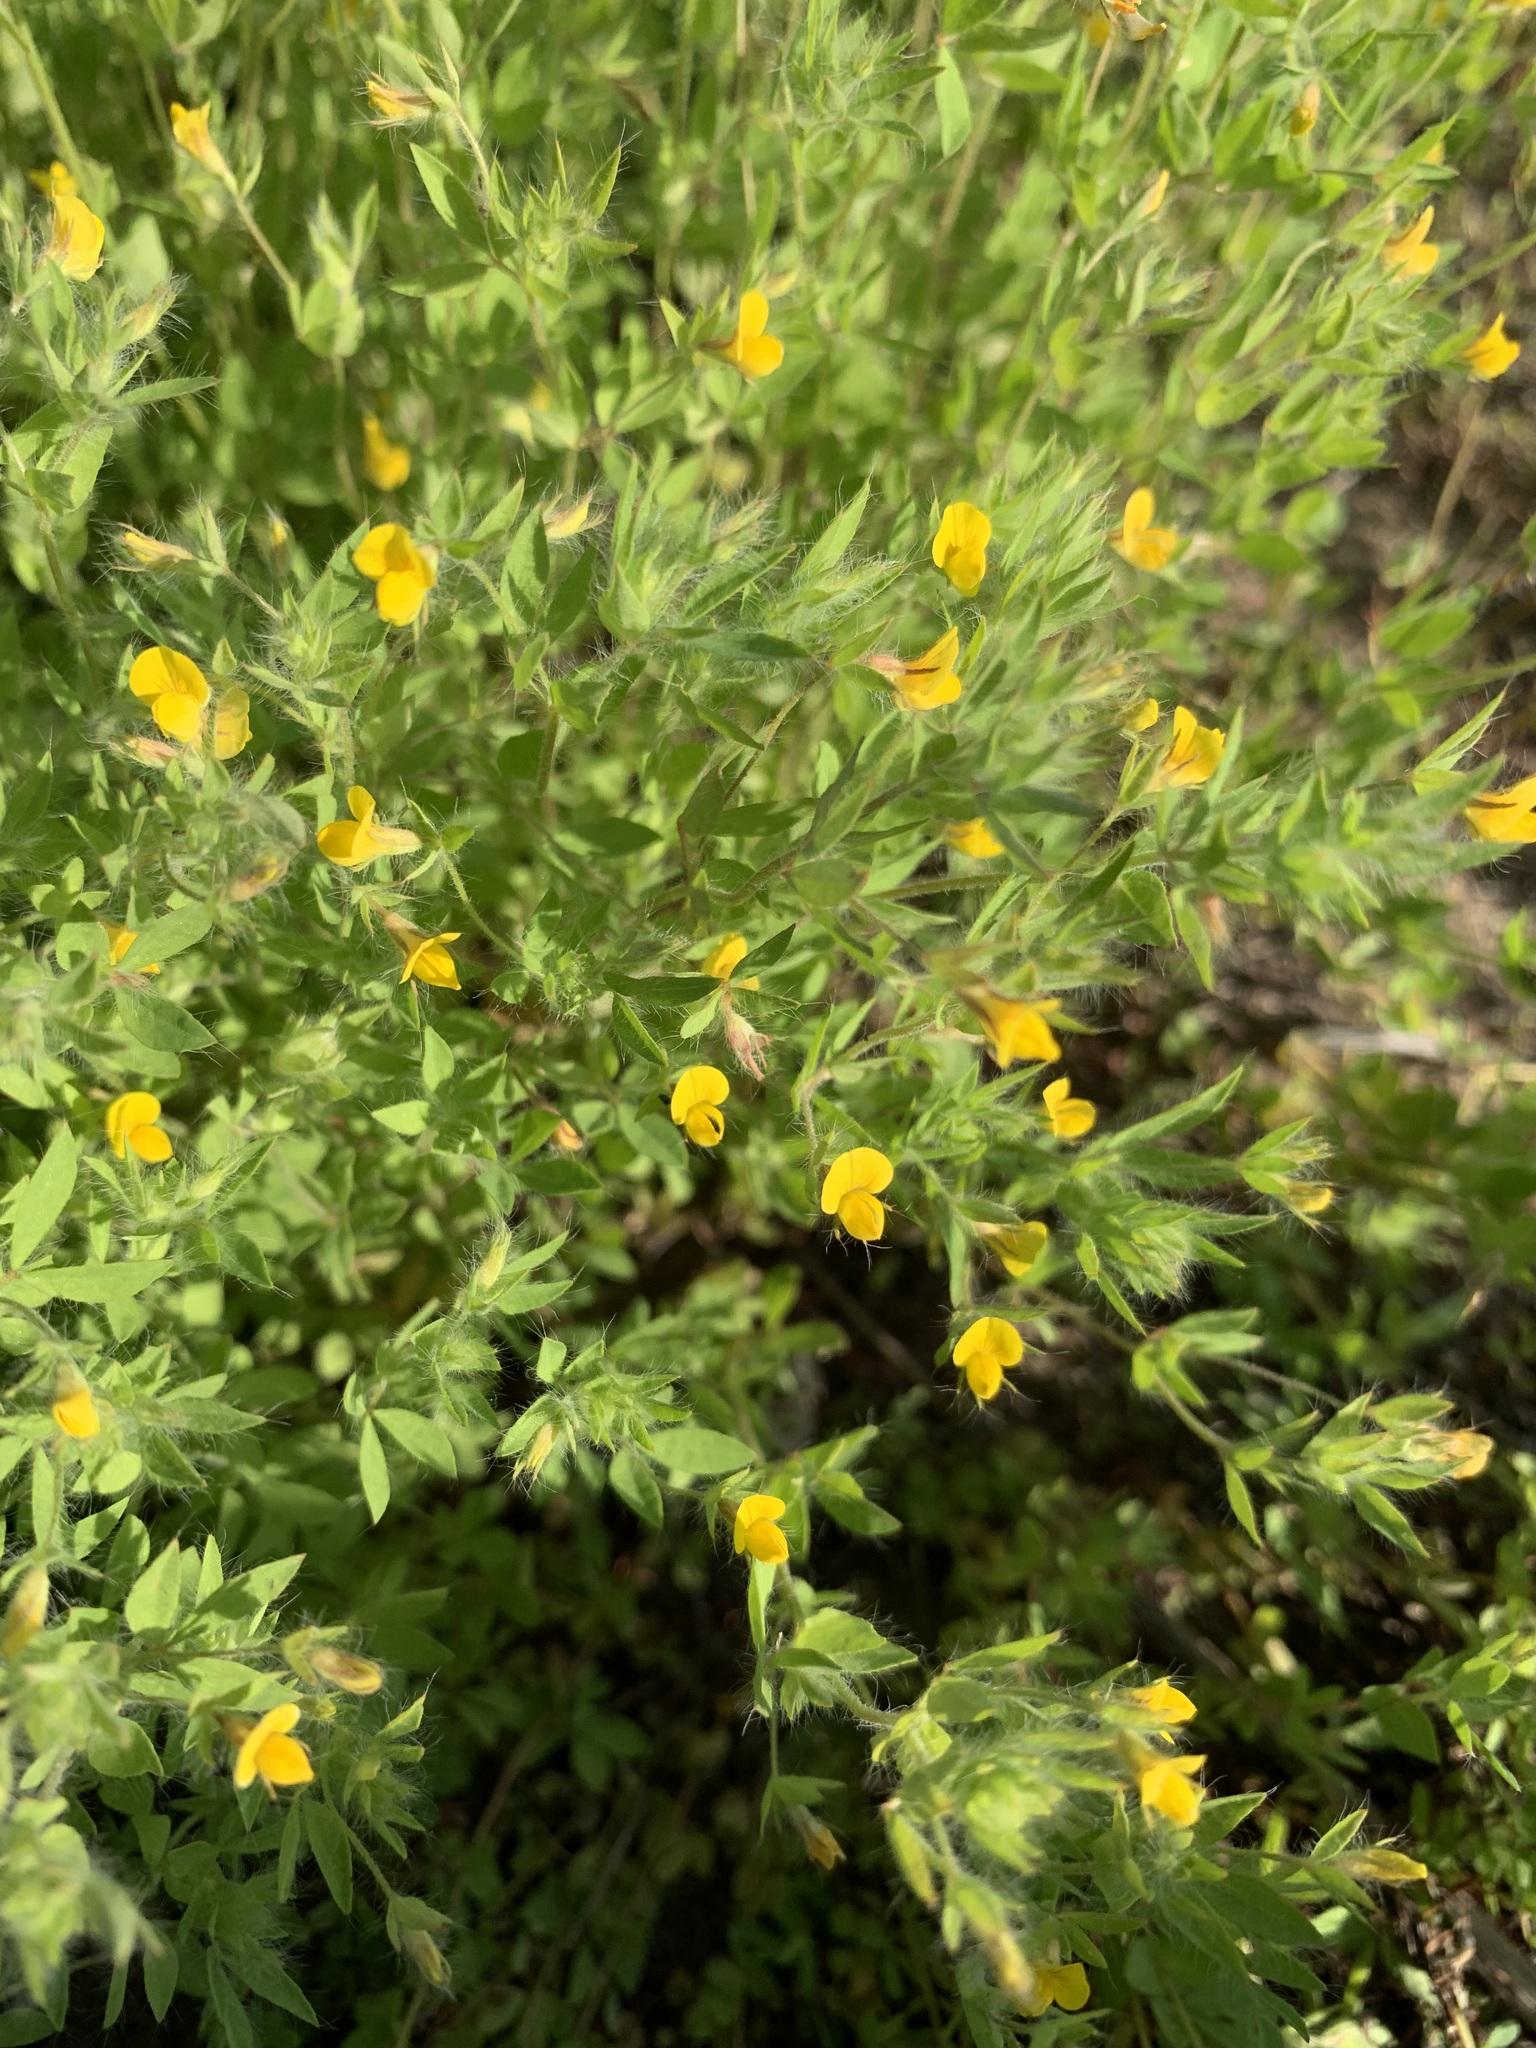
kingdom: Plantae
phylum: Tracheophyta
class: Magnoliopsida
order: Fabales
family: Fabaceae
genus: Lotus
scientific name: Lotus angustissimus
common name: Slender bird's-foot trefoil
